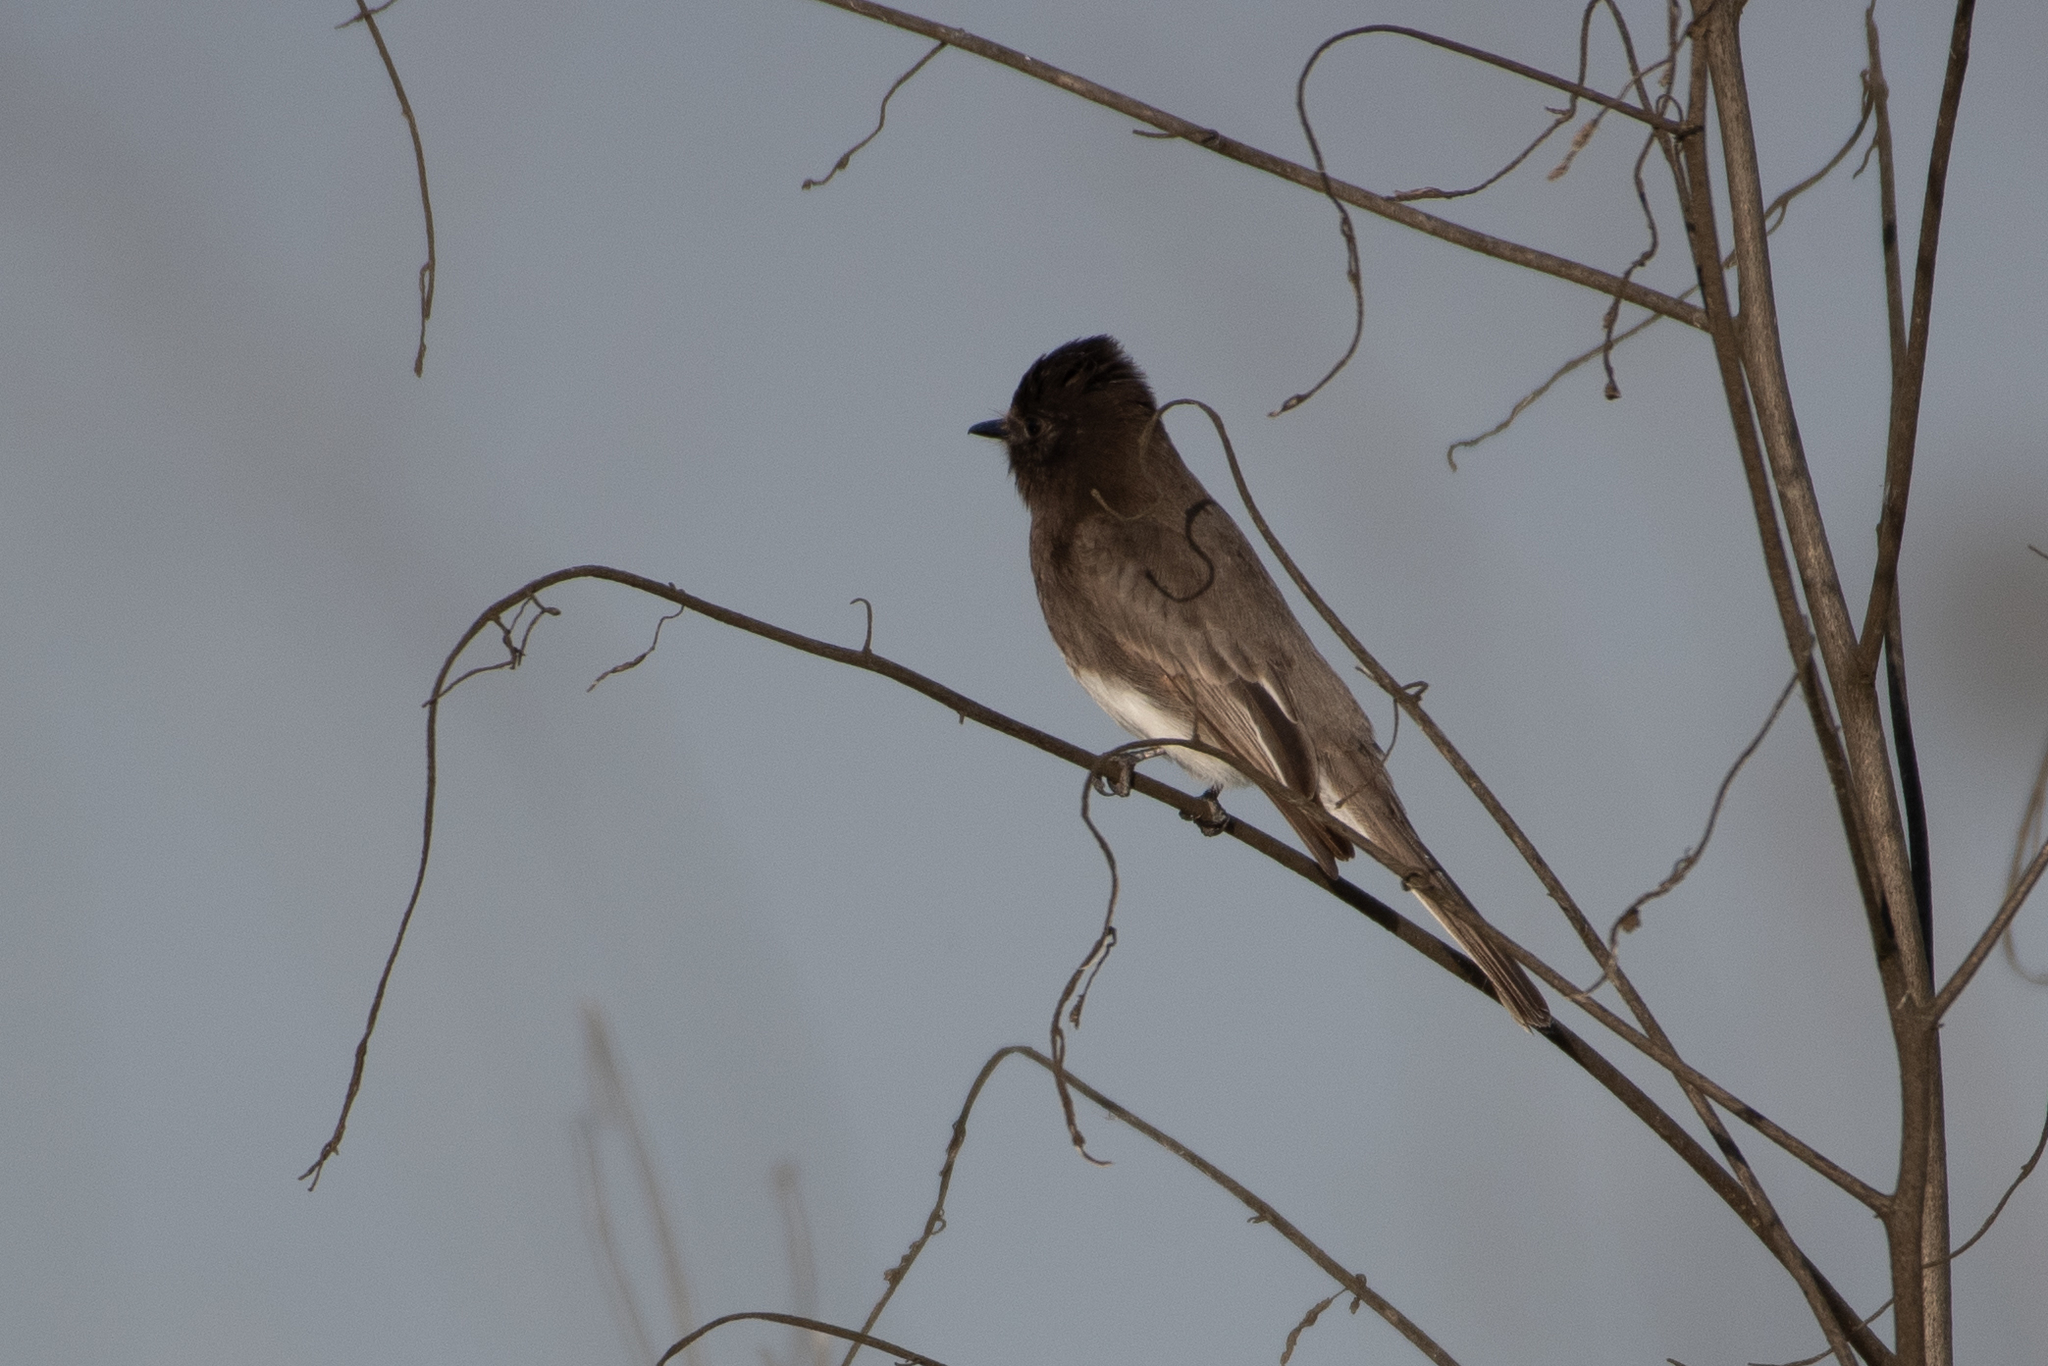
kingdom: Animalia
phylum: Chordata
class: Aves
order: Passeriformes
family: Tyrannidae
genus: Sayornis
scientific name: Sayornis nigricans
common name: Black phoebe
